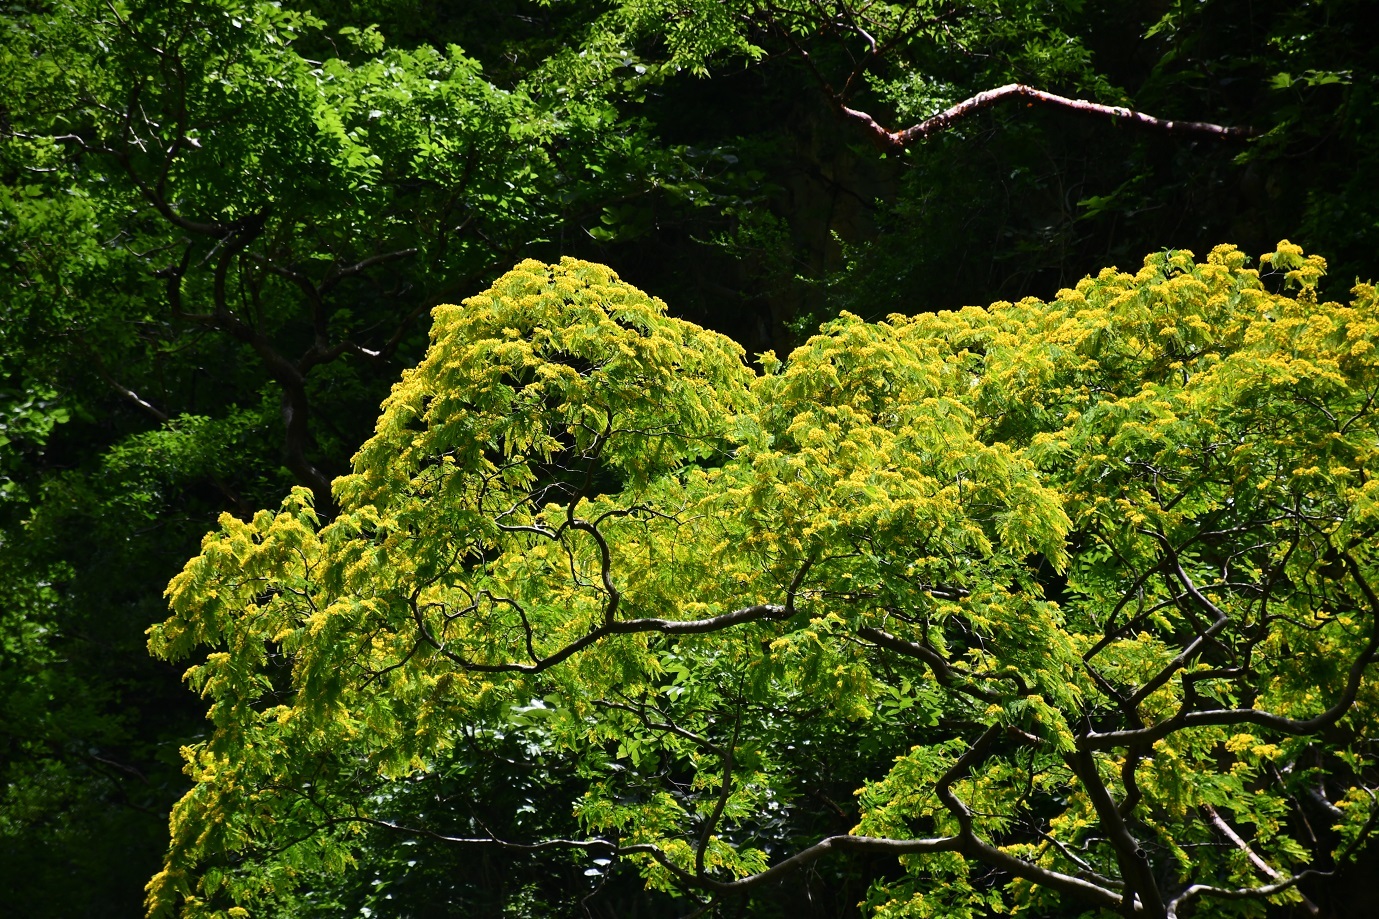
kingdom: Plantae
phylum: Tracheophyta
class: Magnoliopsida
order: Fabales
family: Fabaceae
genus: Poeppigia
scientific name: Poeppigia procera
